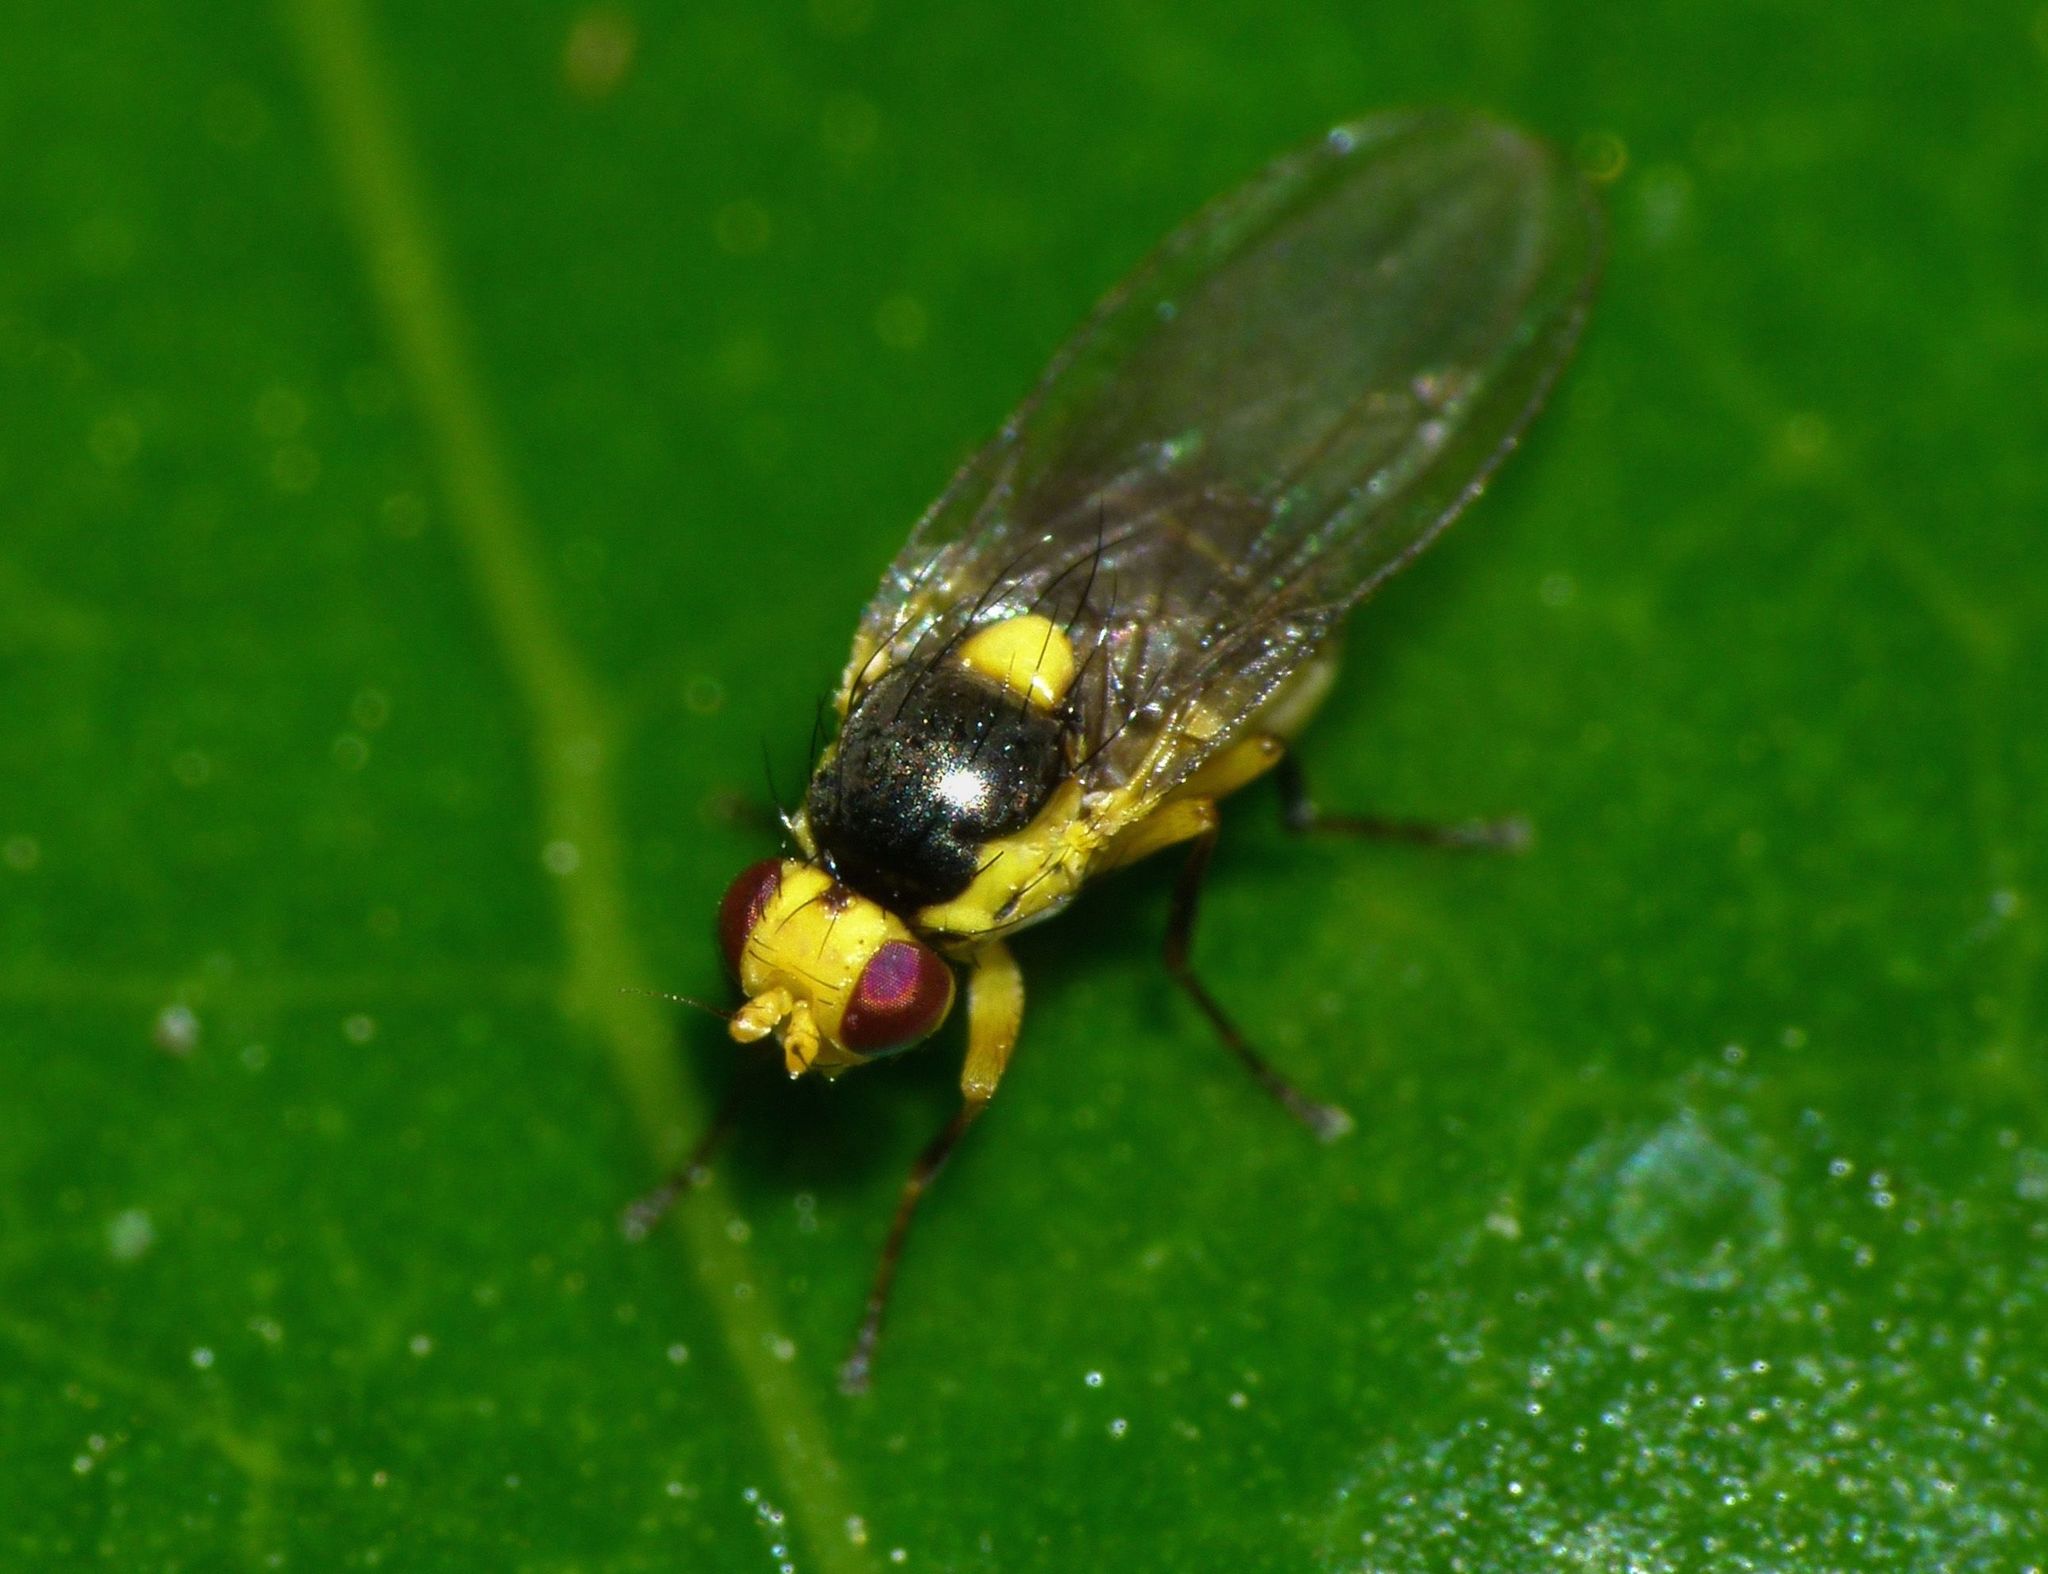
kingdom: Animalia
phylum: Arthropoda
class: Insecta
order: Diptera
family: Agromyzidae
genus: Liriomyza
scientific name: Liriomyza citreifemorata
